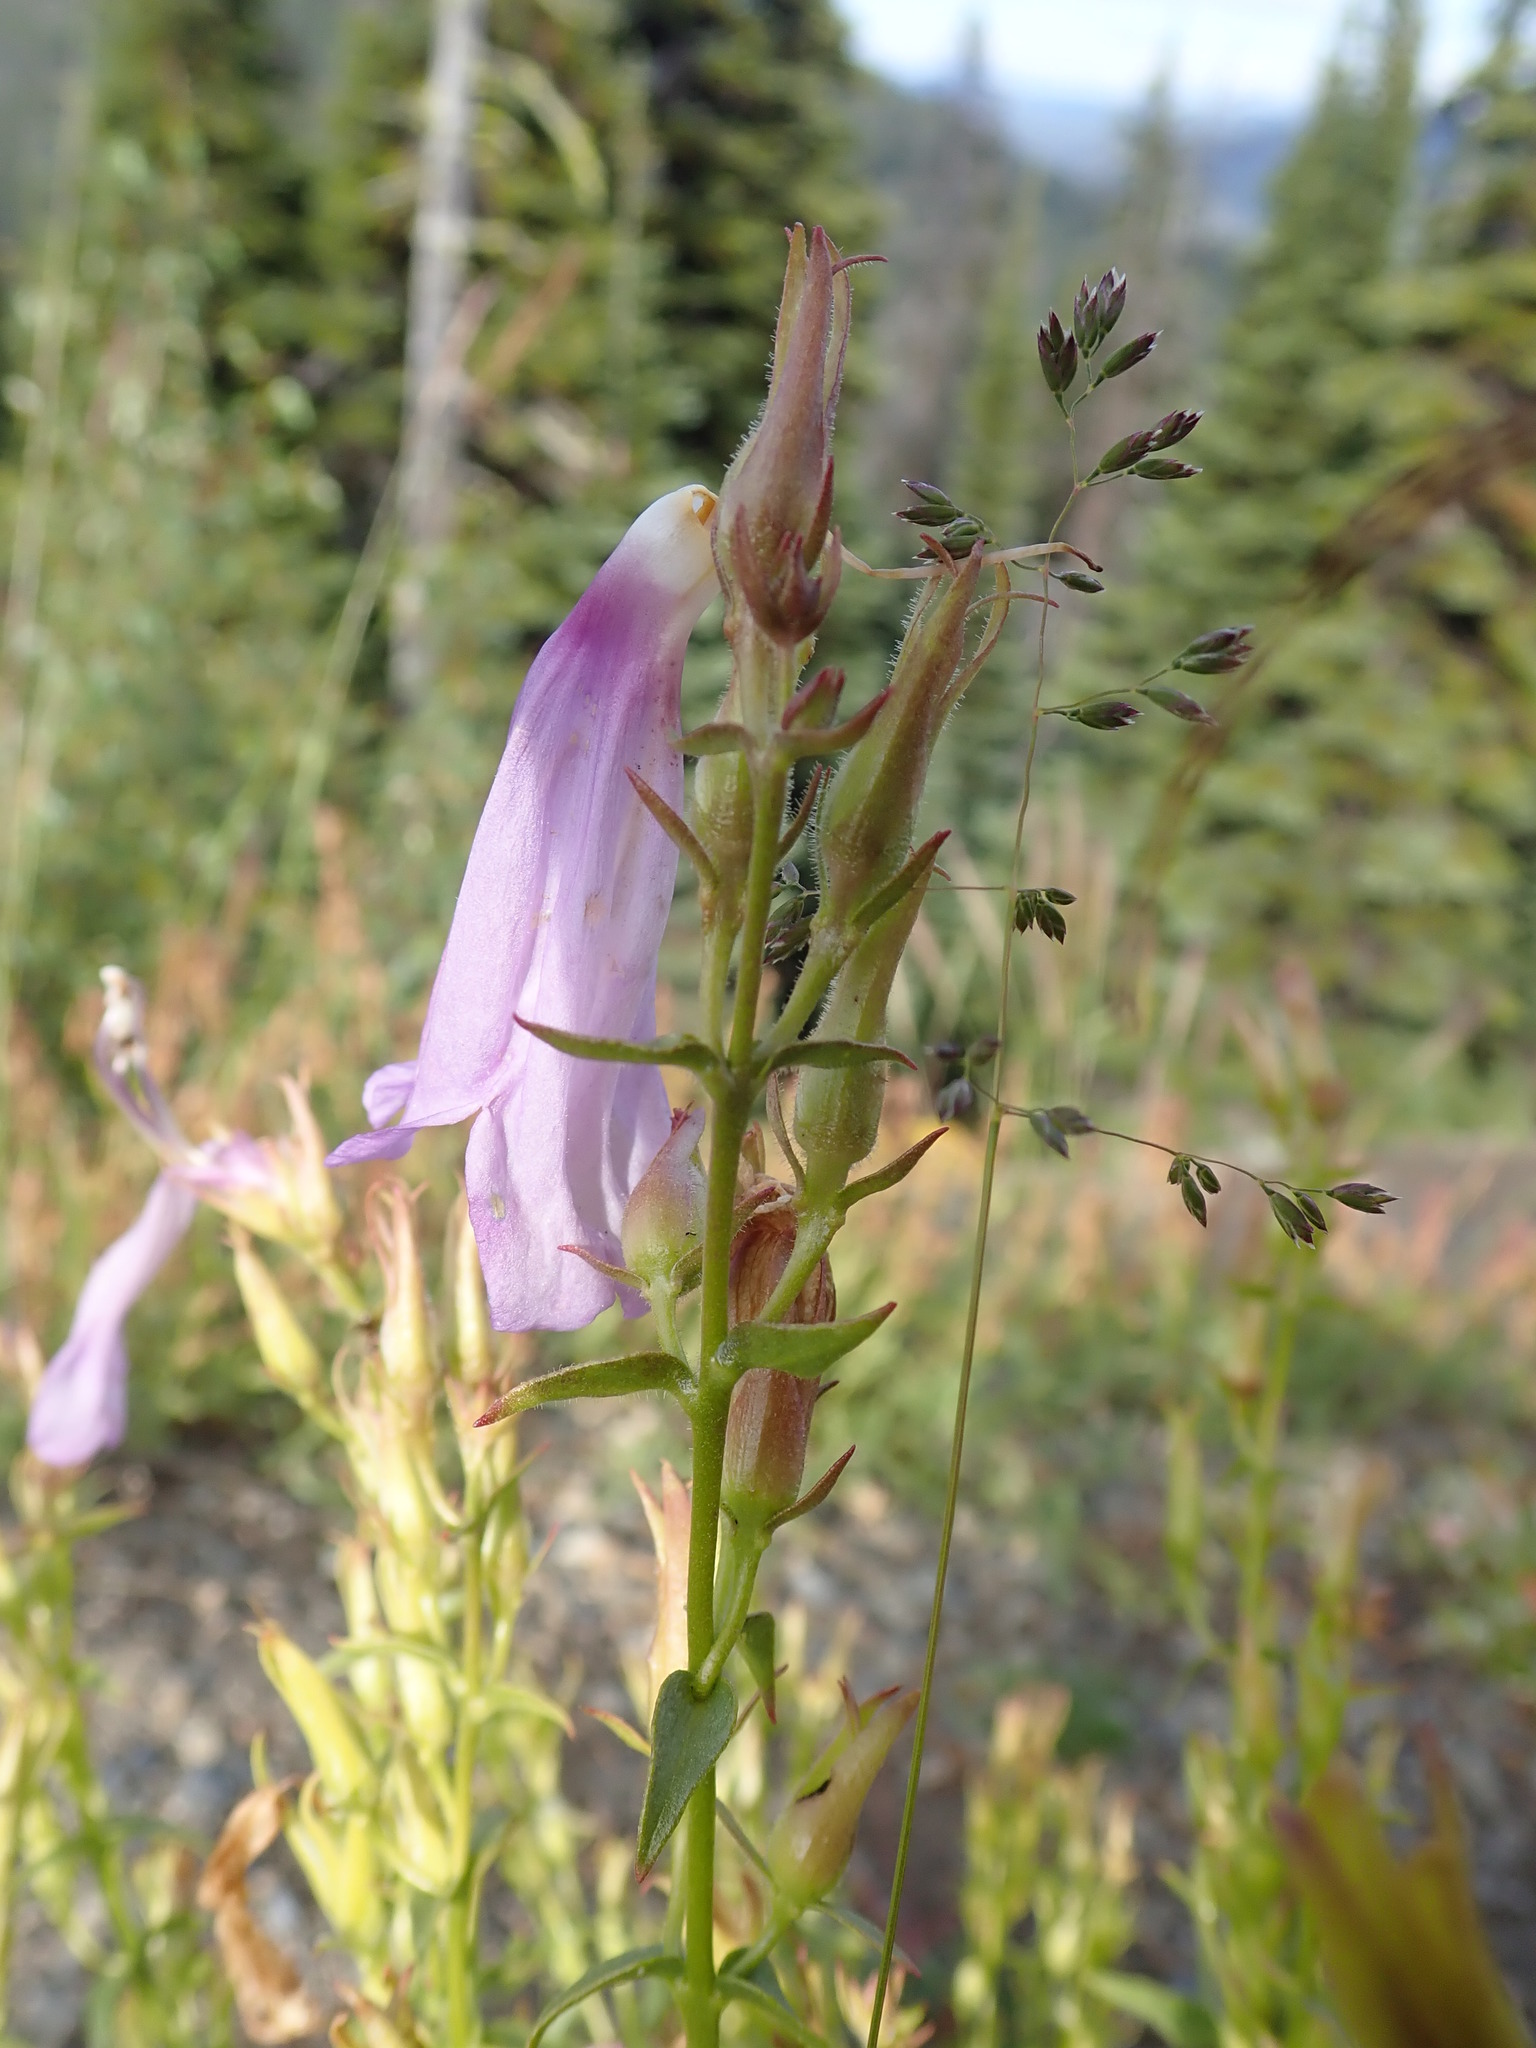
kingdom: Plantae
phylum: Tracheophyta
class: Magnoliopsida
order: Lamiales
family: Plantaginaceae
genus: Penstemon
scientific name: Penstemon serrulatus
